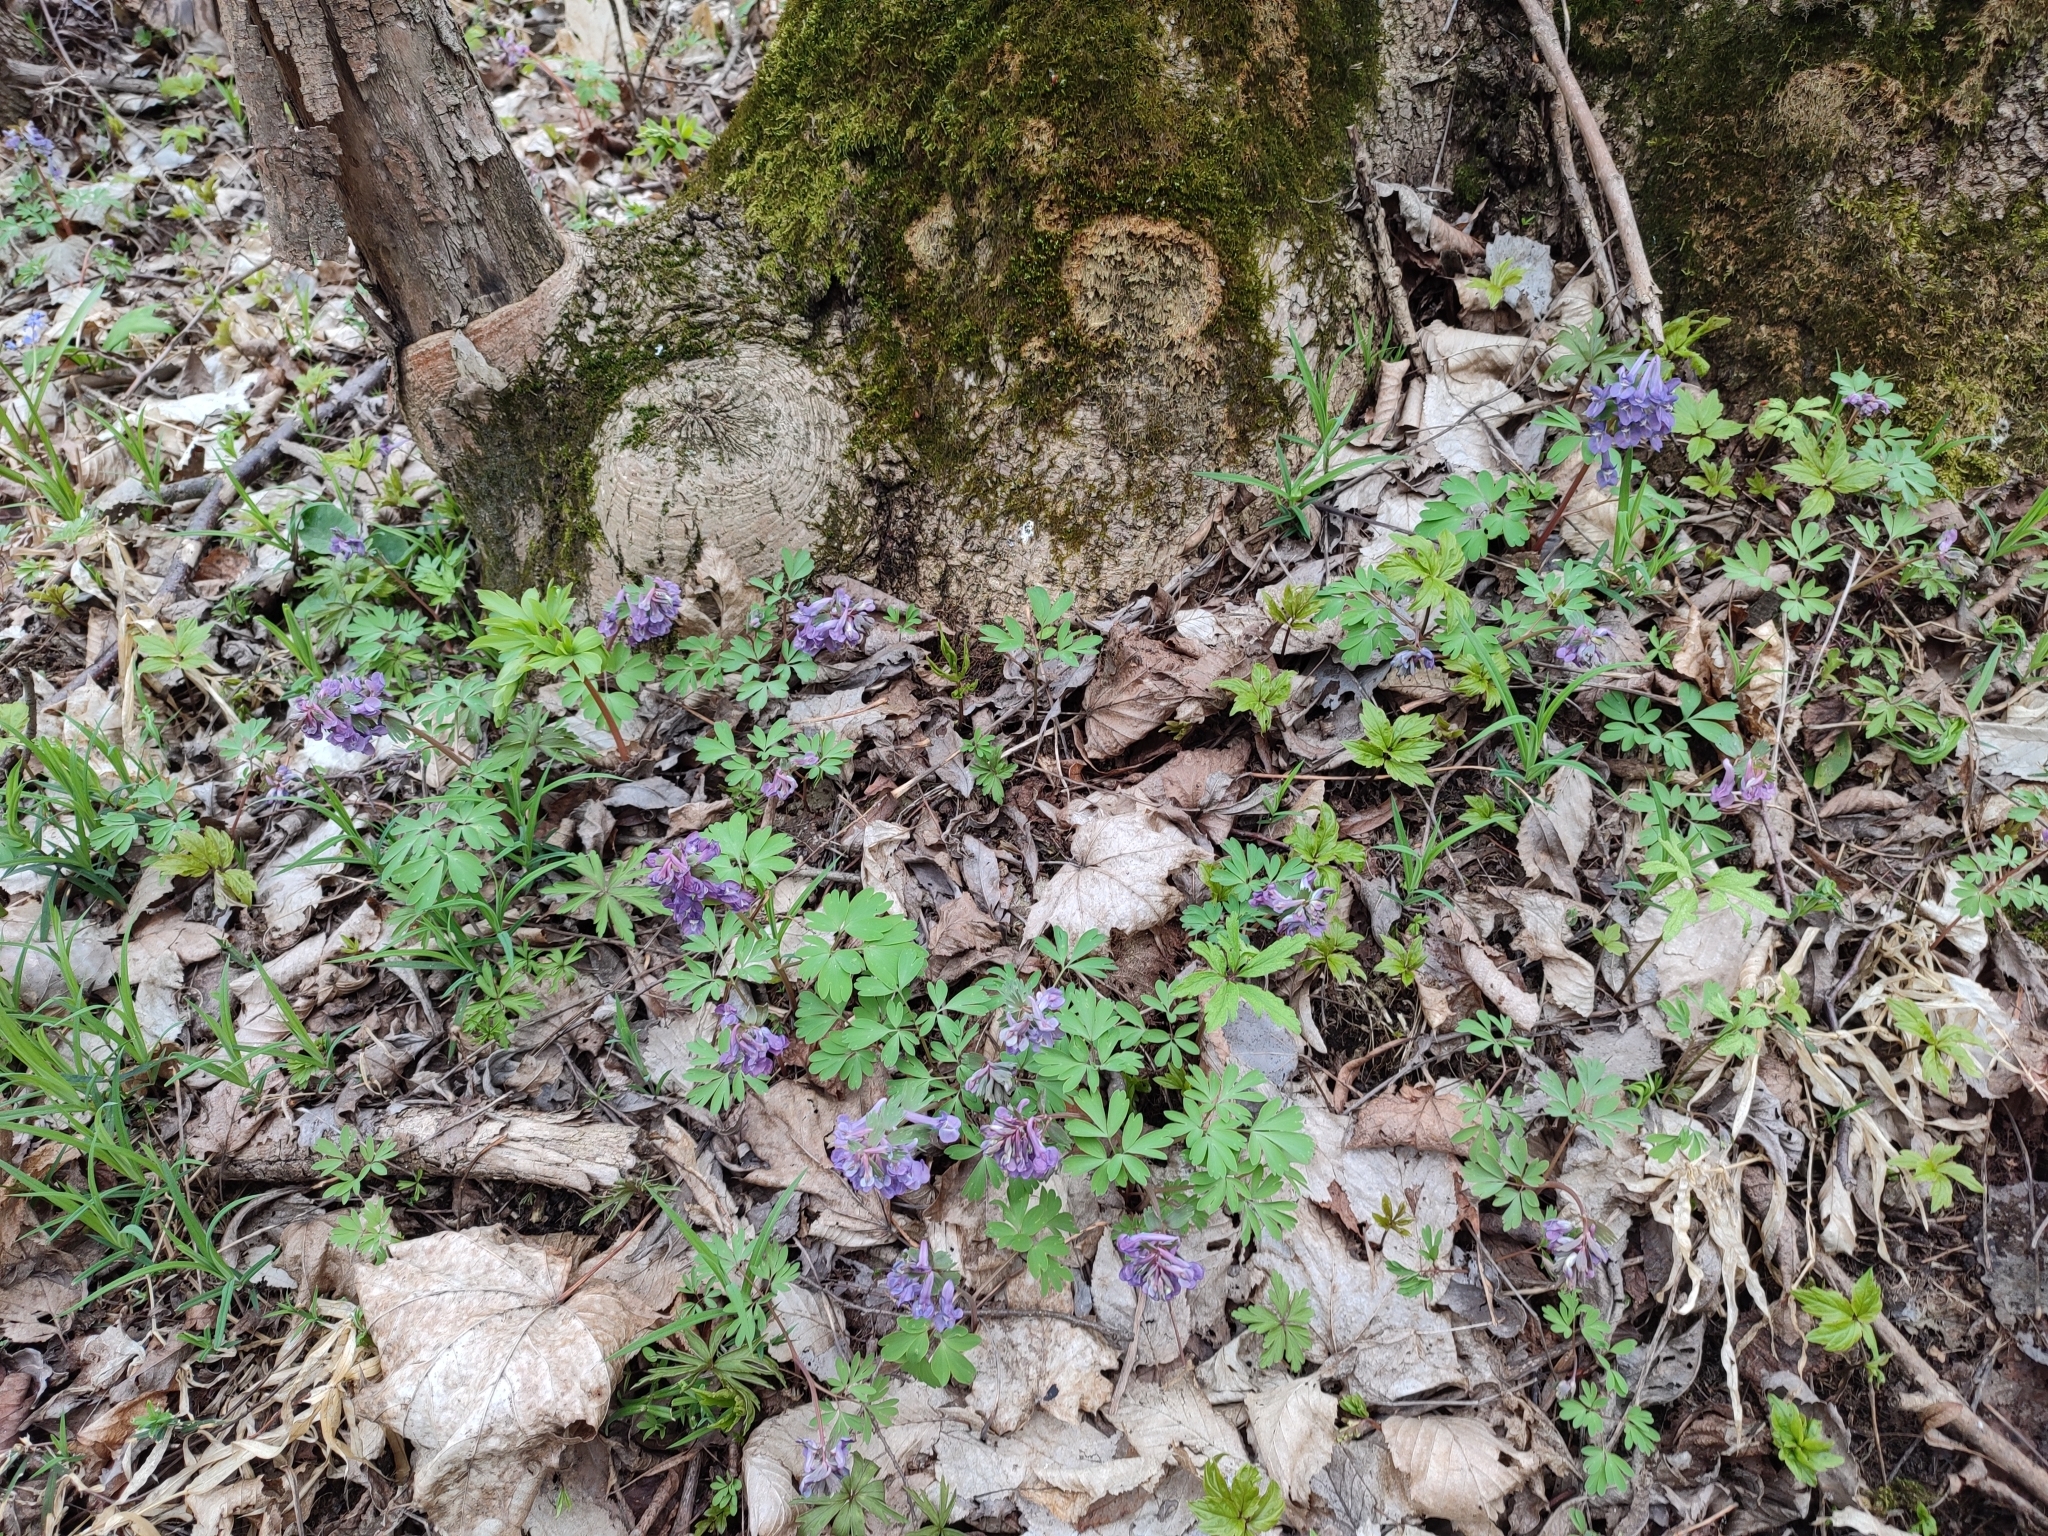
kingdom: Plantae
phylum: Tracheophyta
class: Magnoliopsida
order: Ranunculales
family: Papaveraceae
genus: Corydalis
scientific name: Corydalis solida
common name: Bird-in-a-bush
